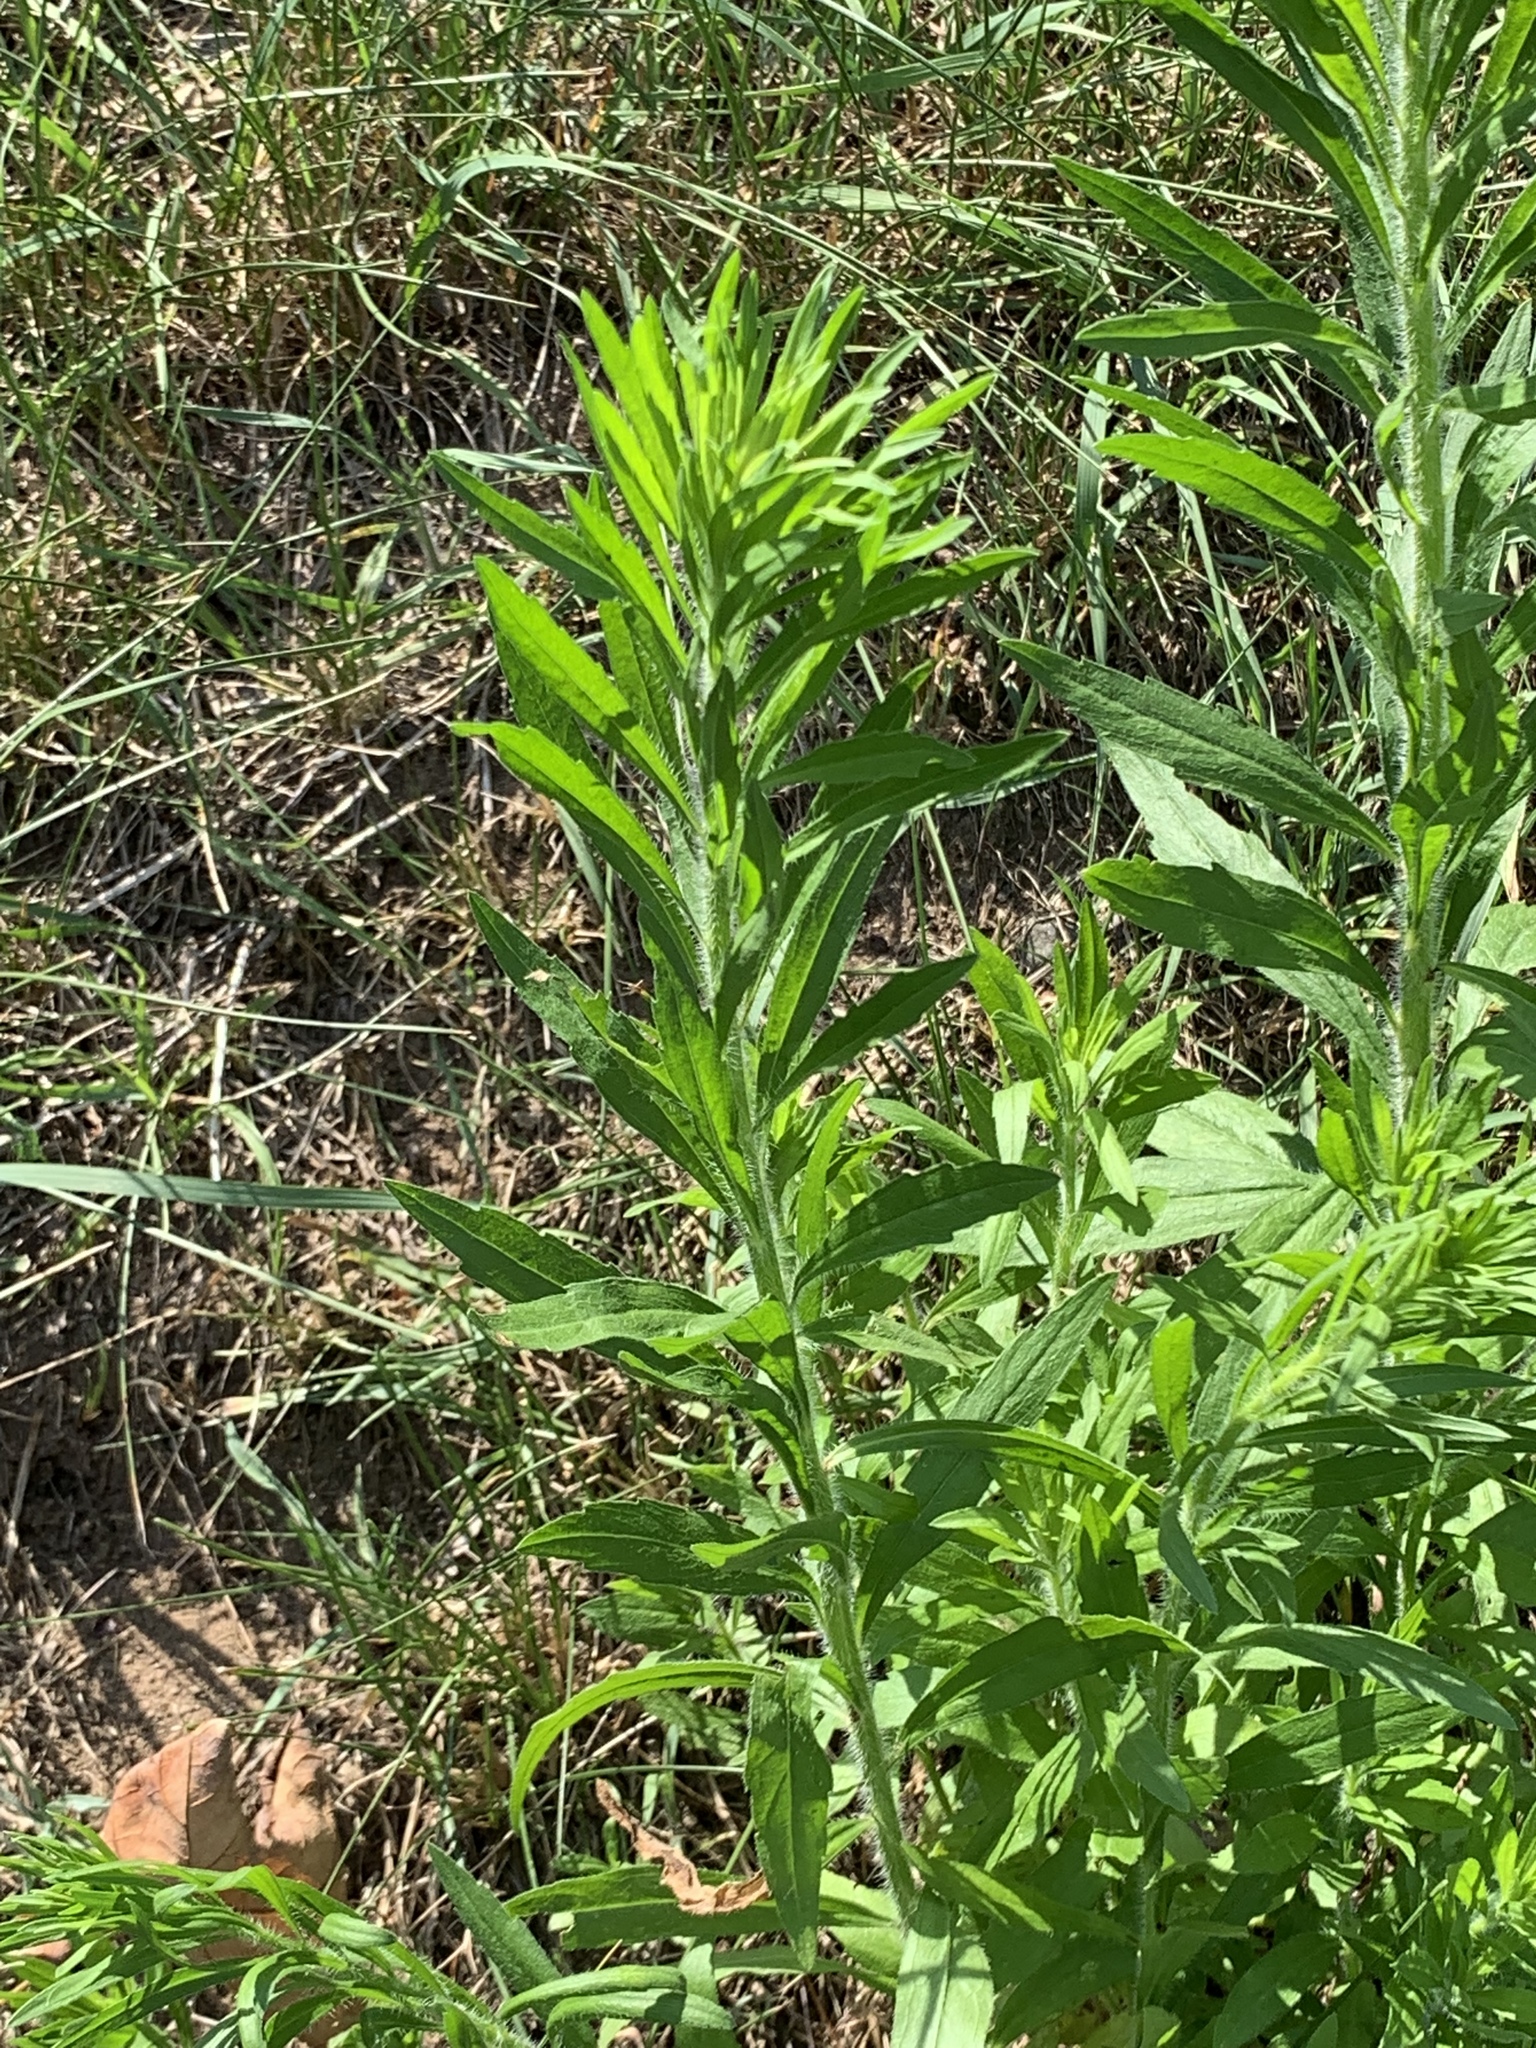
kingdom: Plantae
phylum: Tracheophyta
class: Magnoliopsida
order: Asterales
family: Asteraceae
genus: Erigeron
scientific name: Erigeron canadensis
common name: Canadian fleabane
